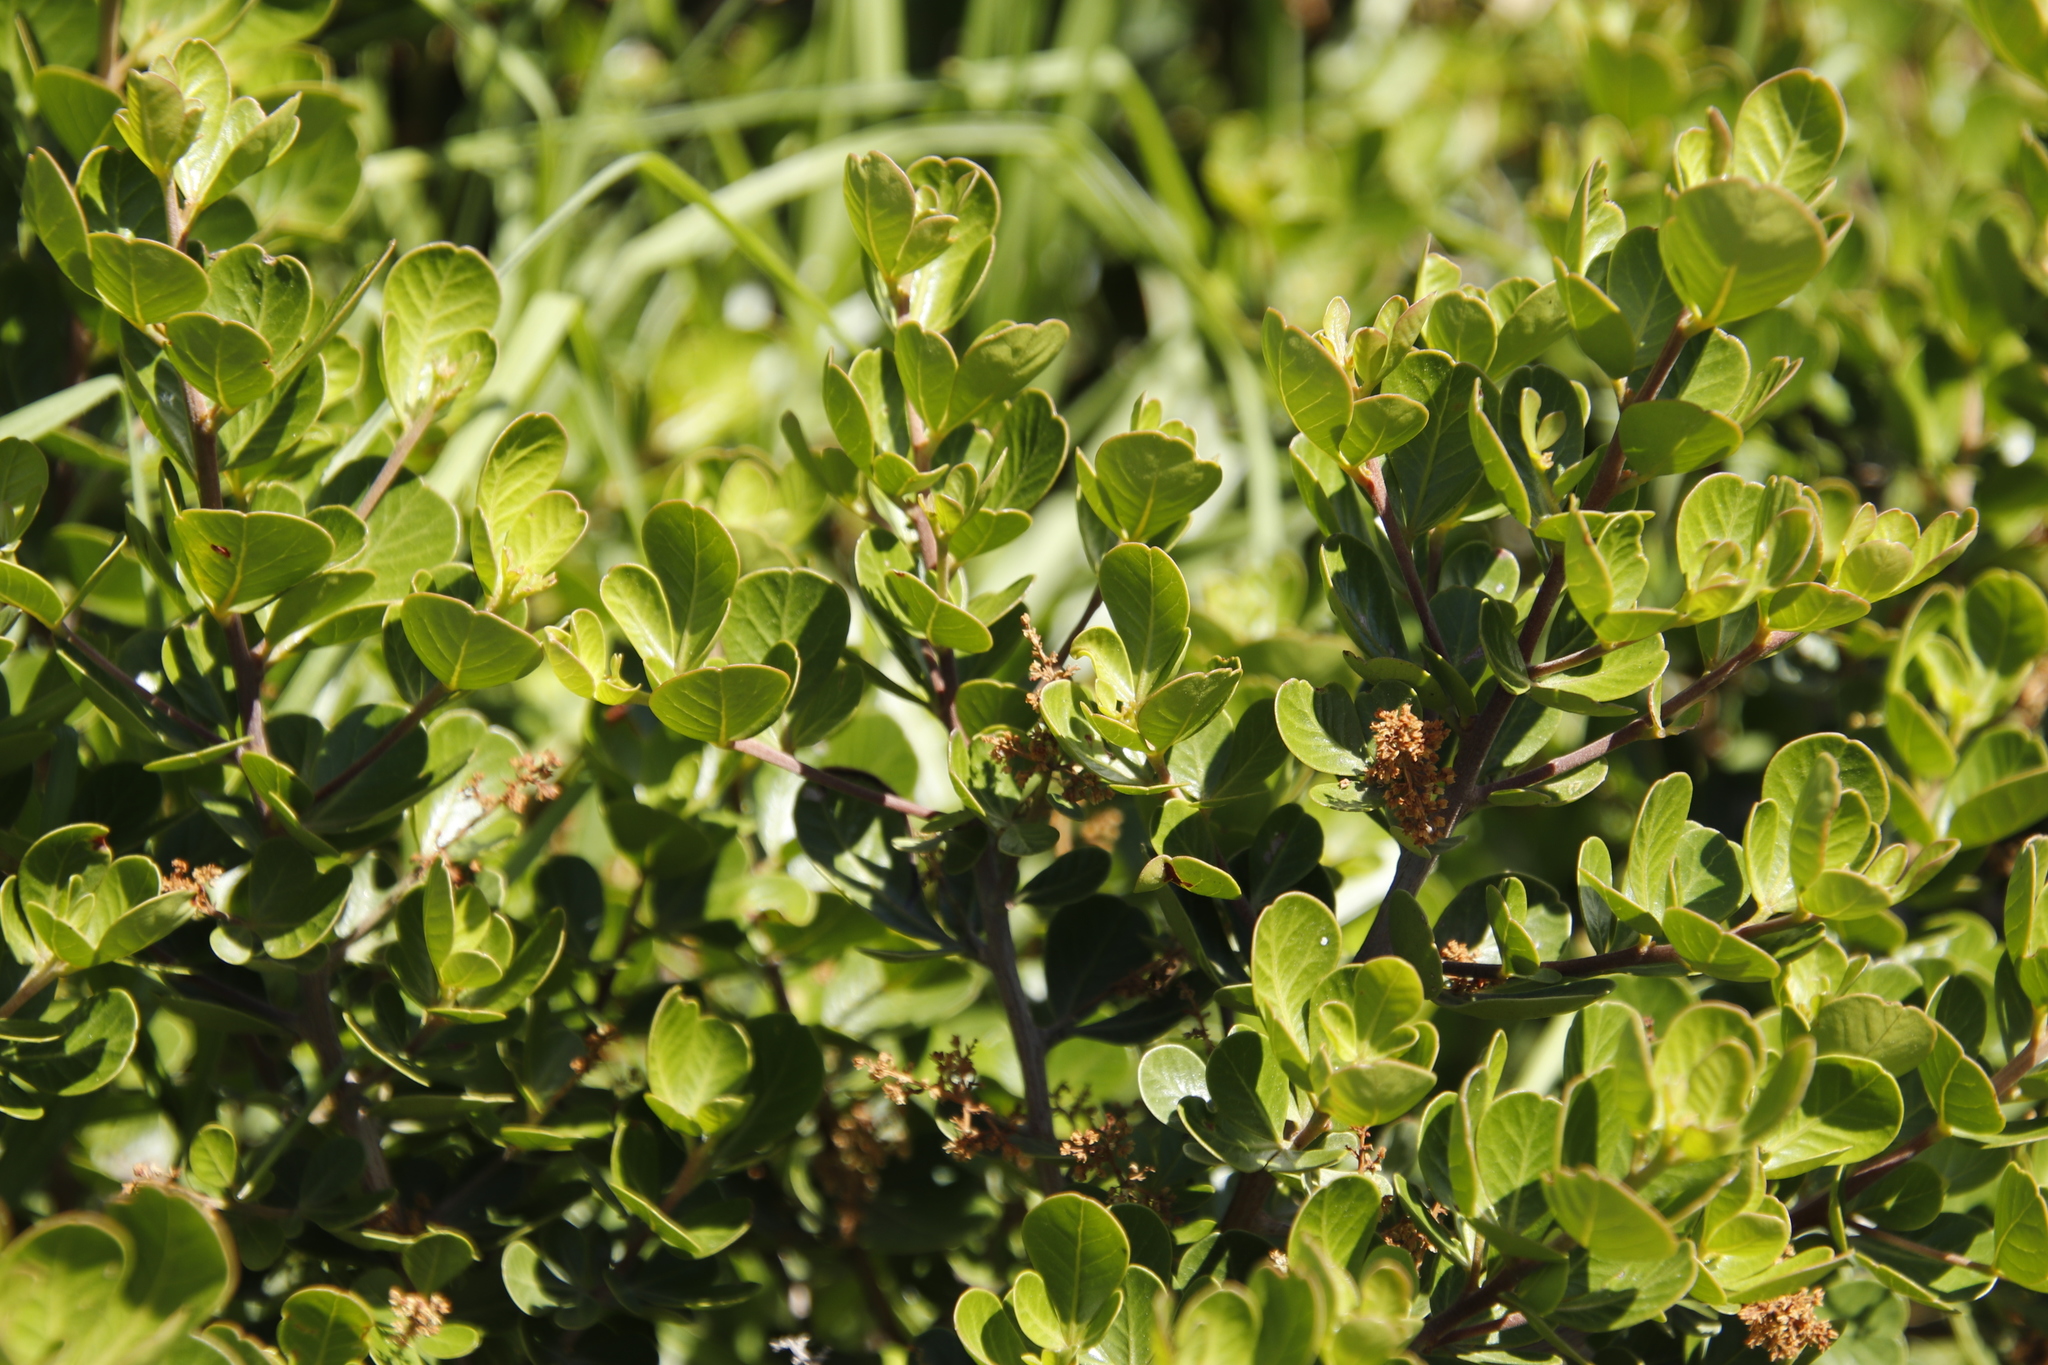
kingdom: Plantae
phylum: Tracheophyta
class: Magnoliopsida
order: Sapindales
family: Anacardiaceae
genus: Searsia
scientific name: Searsia lucida
